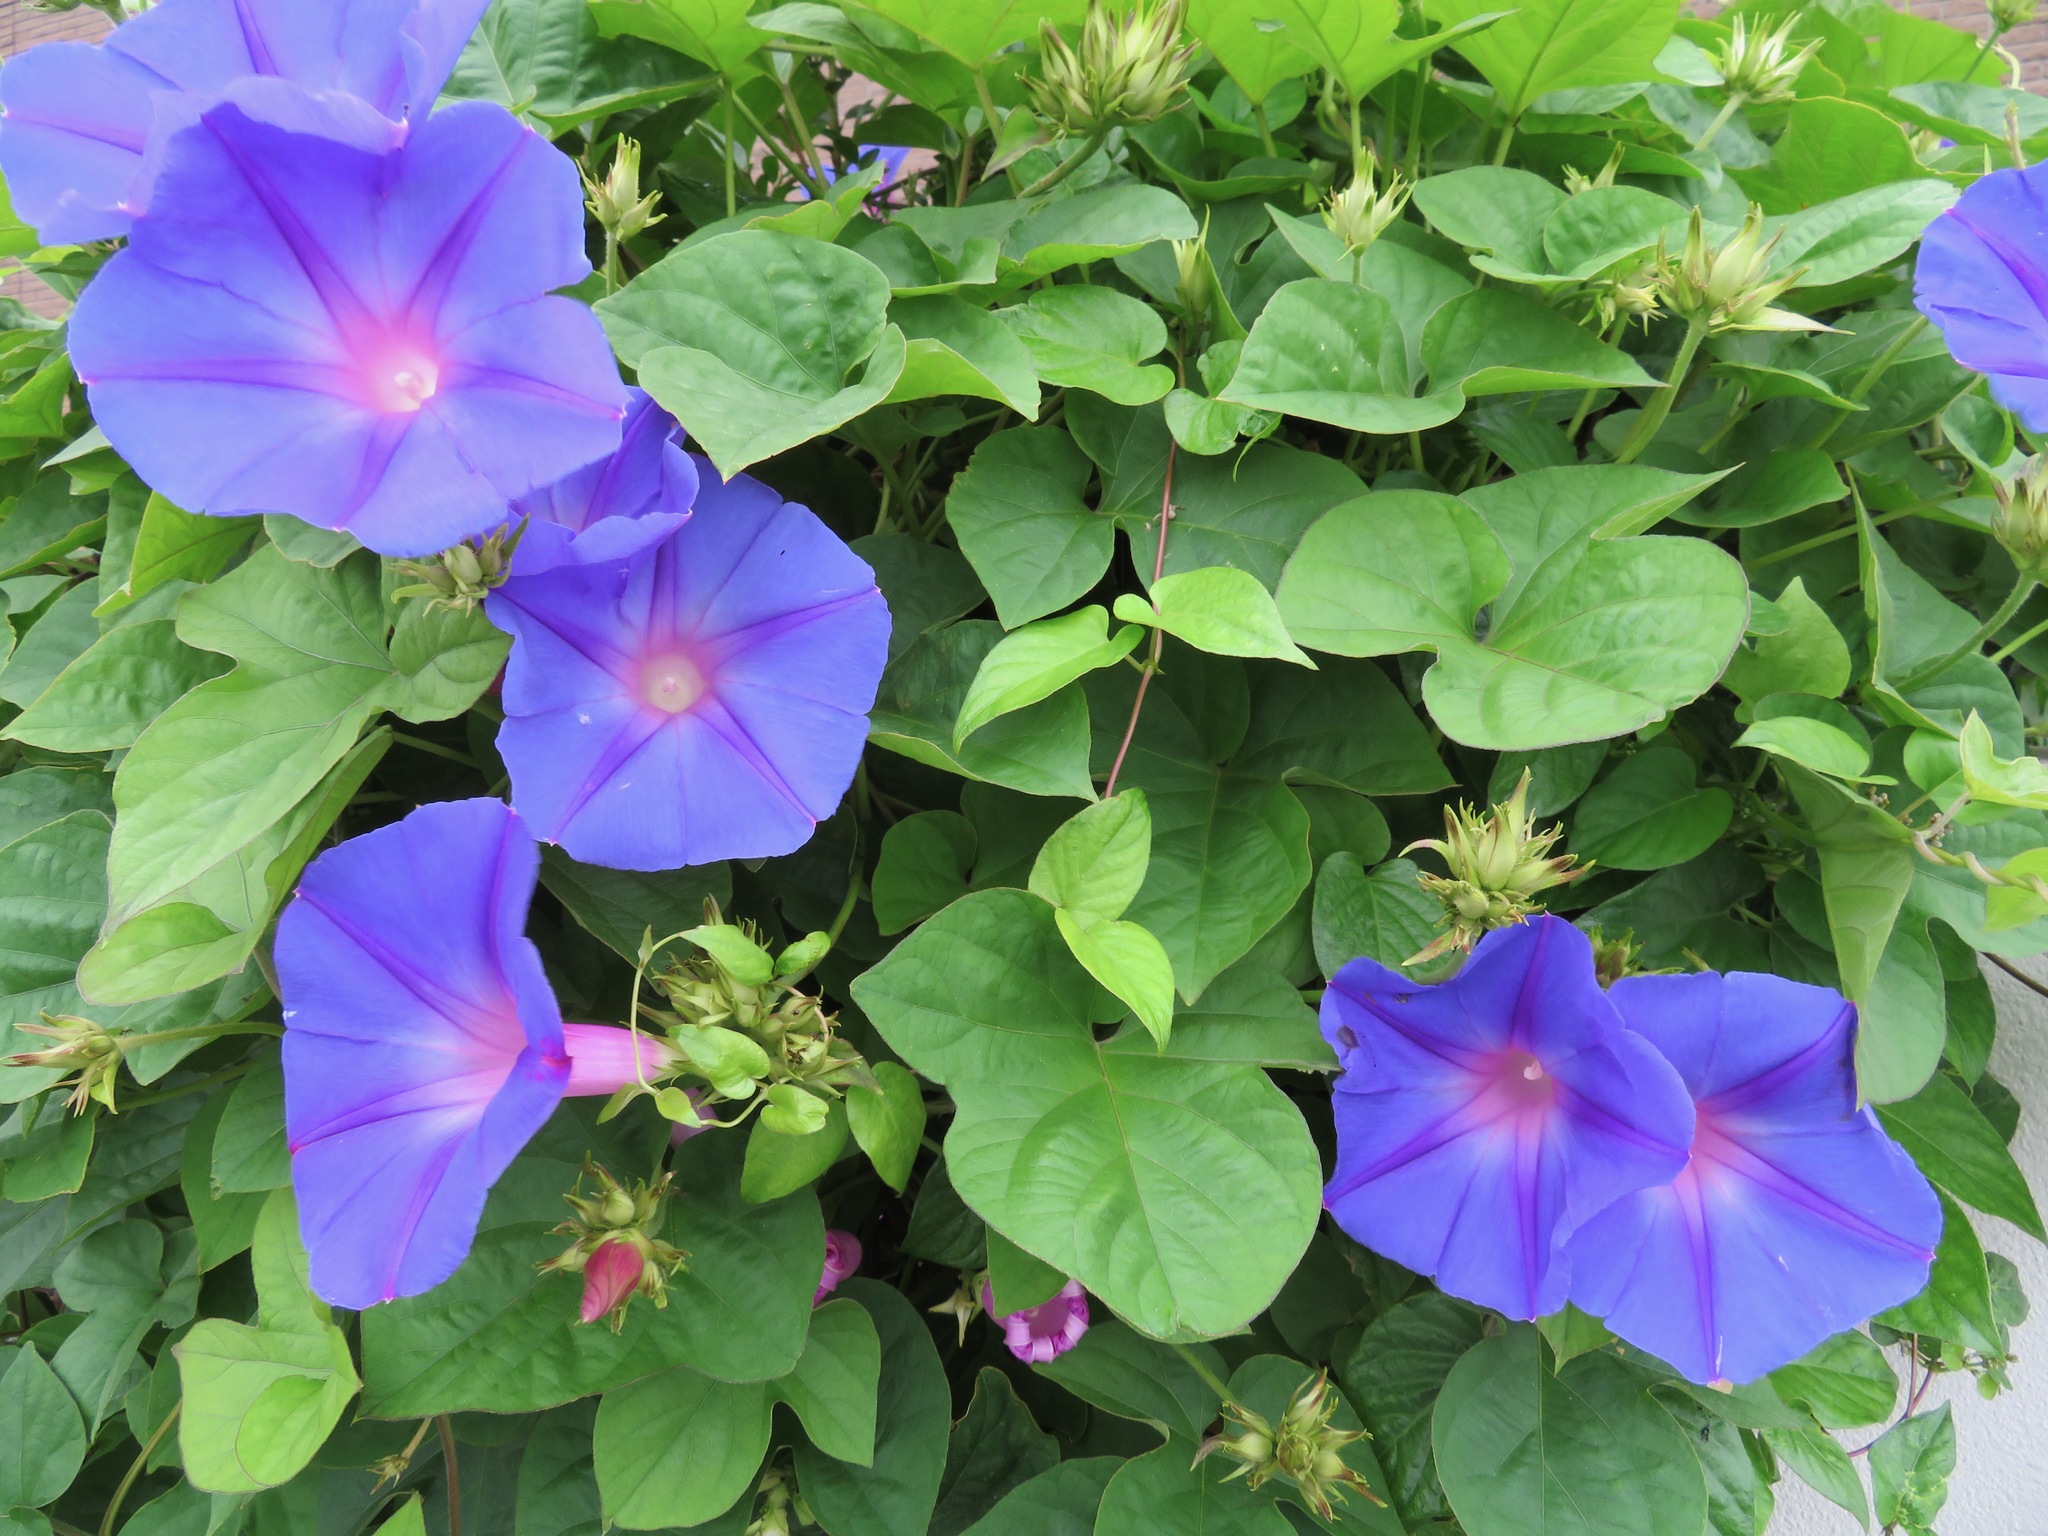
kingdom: Plantae
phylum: Tracheophyta
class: Magnoliopsida
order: Solanales
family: Convolvulaceae
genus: Ipomoea
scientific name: Ipomoea indica
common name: Blue dawnflower
